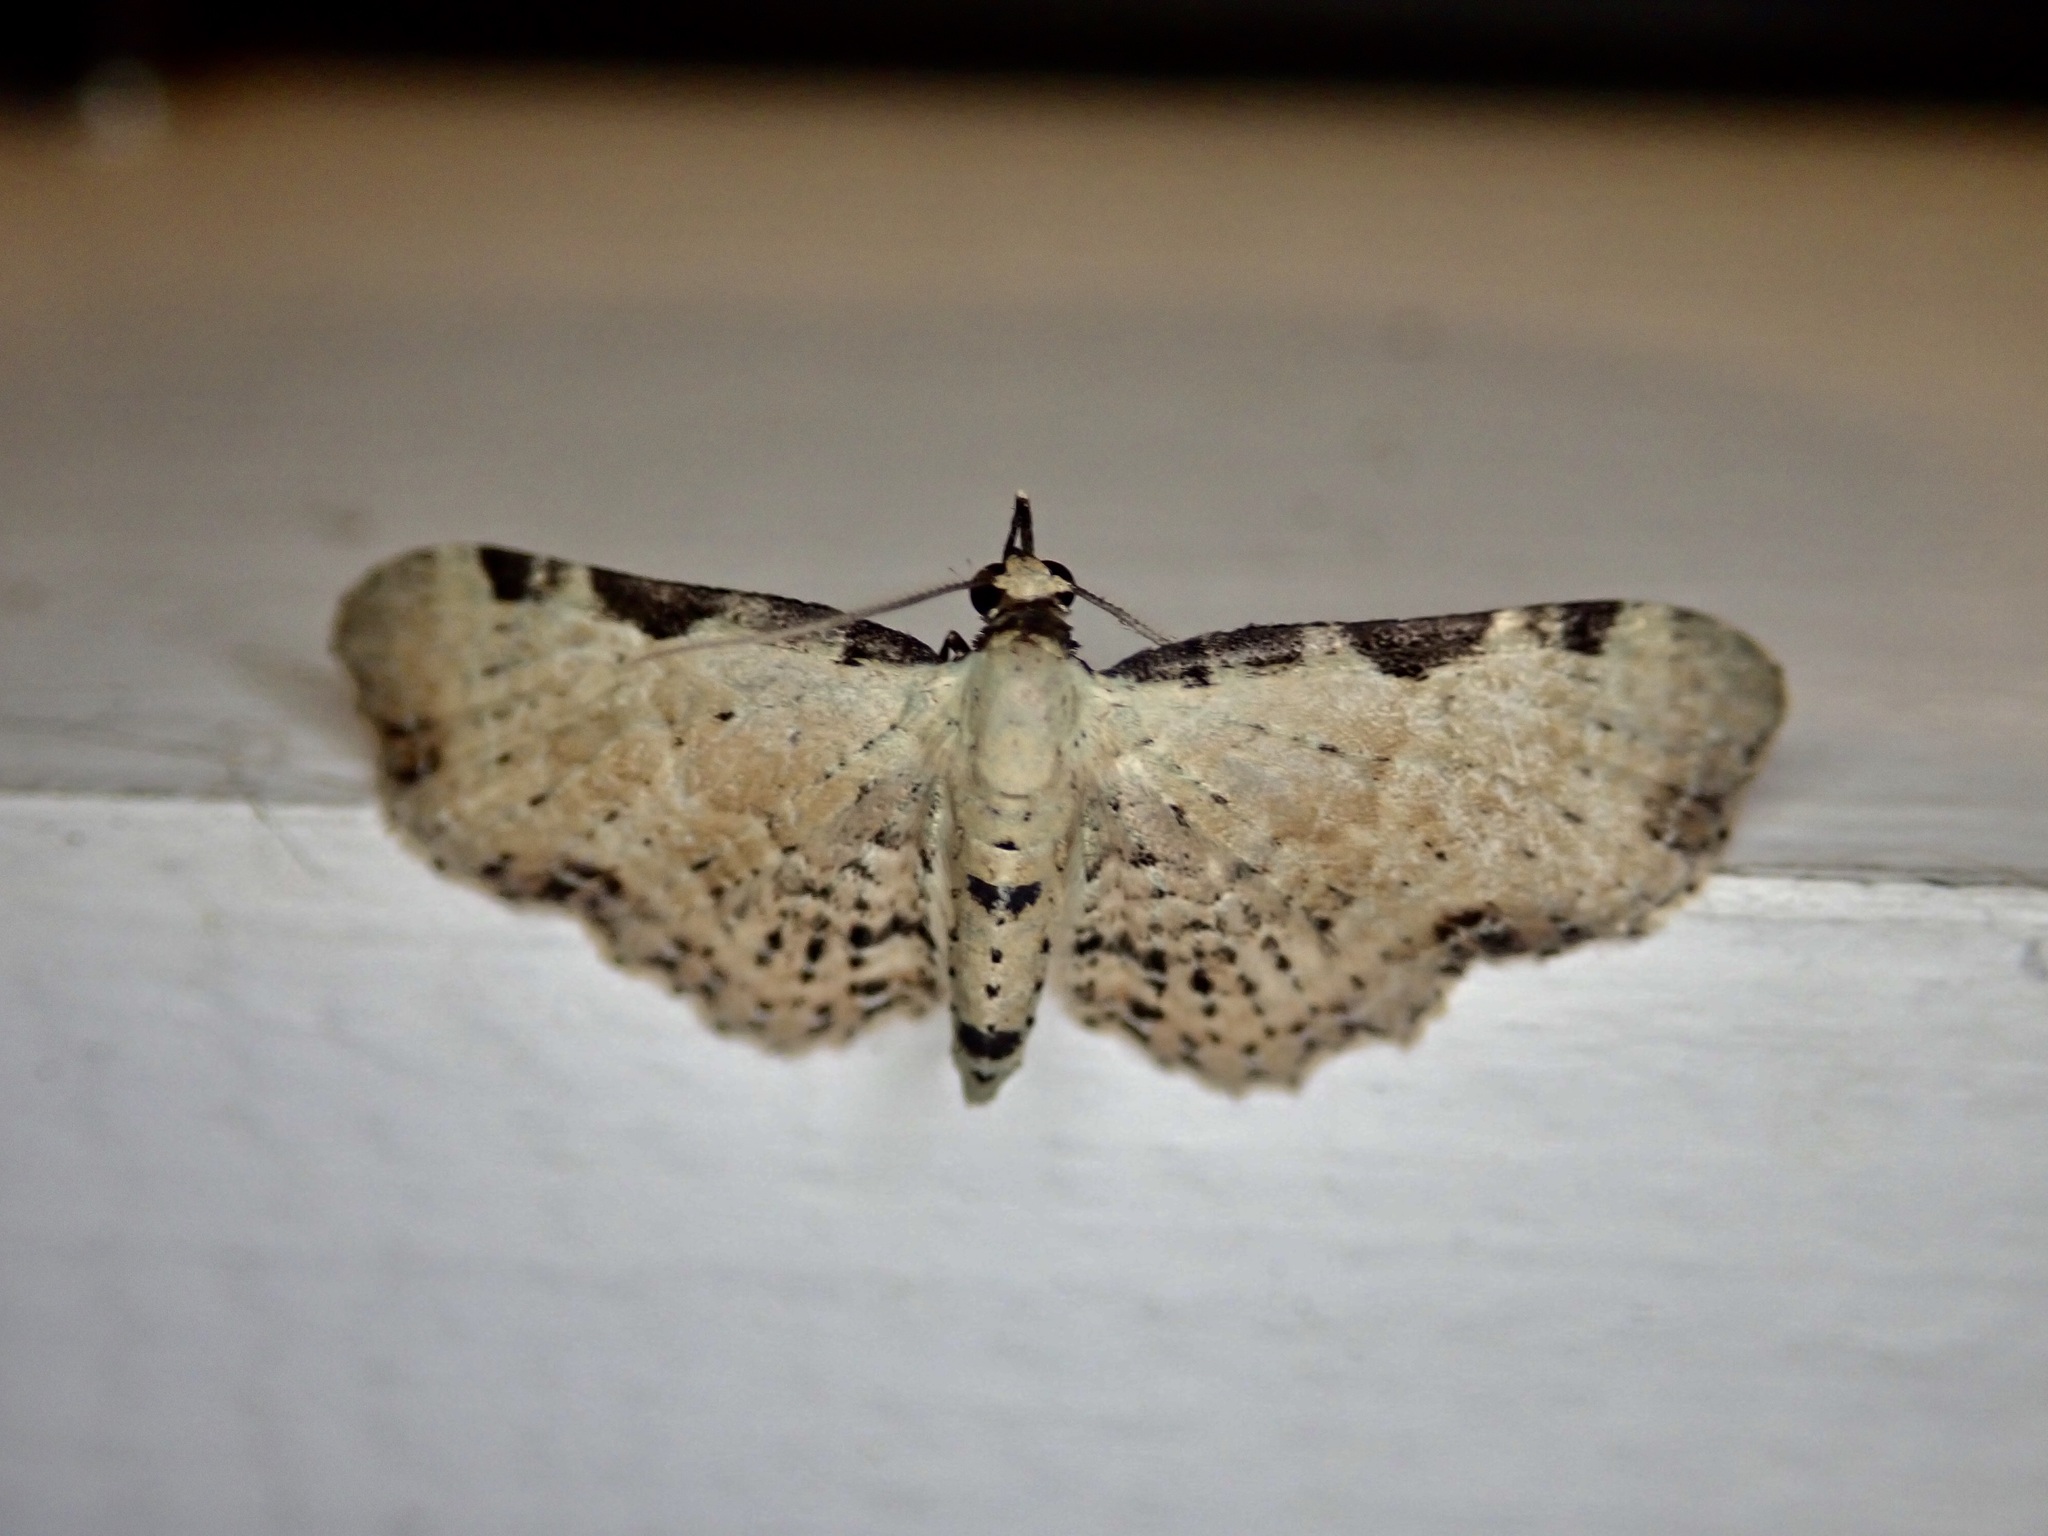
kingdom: Animalia
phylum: Arthropoda
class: Insecta
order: Lepidoptera
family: Geometridae
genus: Pasiphila
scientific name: Pasiphila fumipalpata
